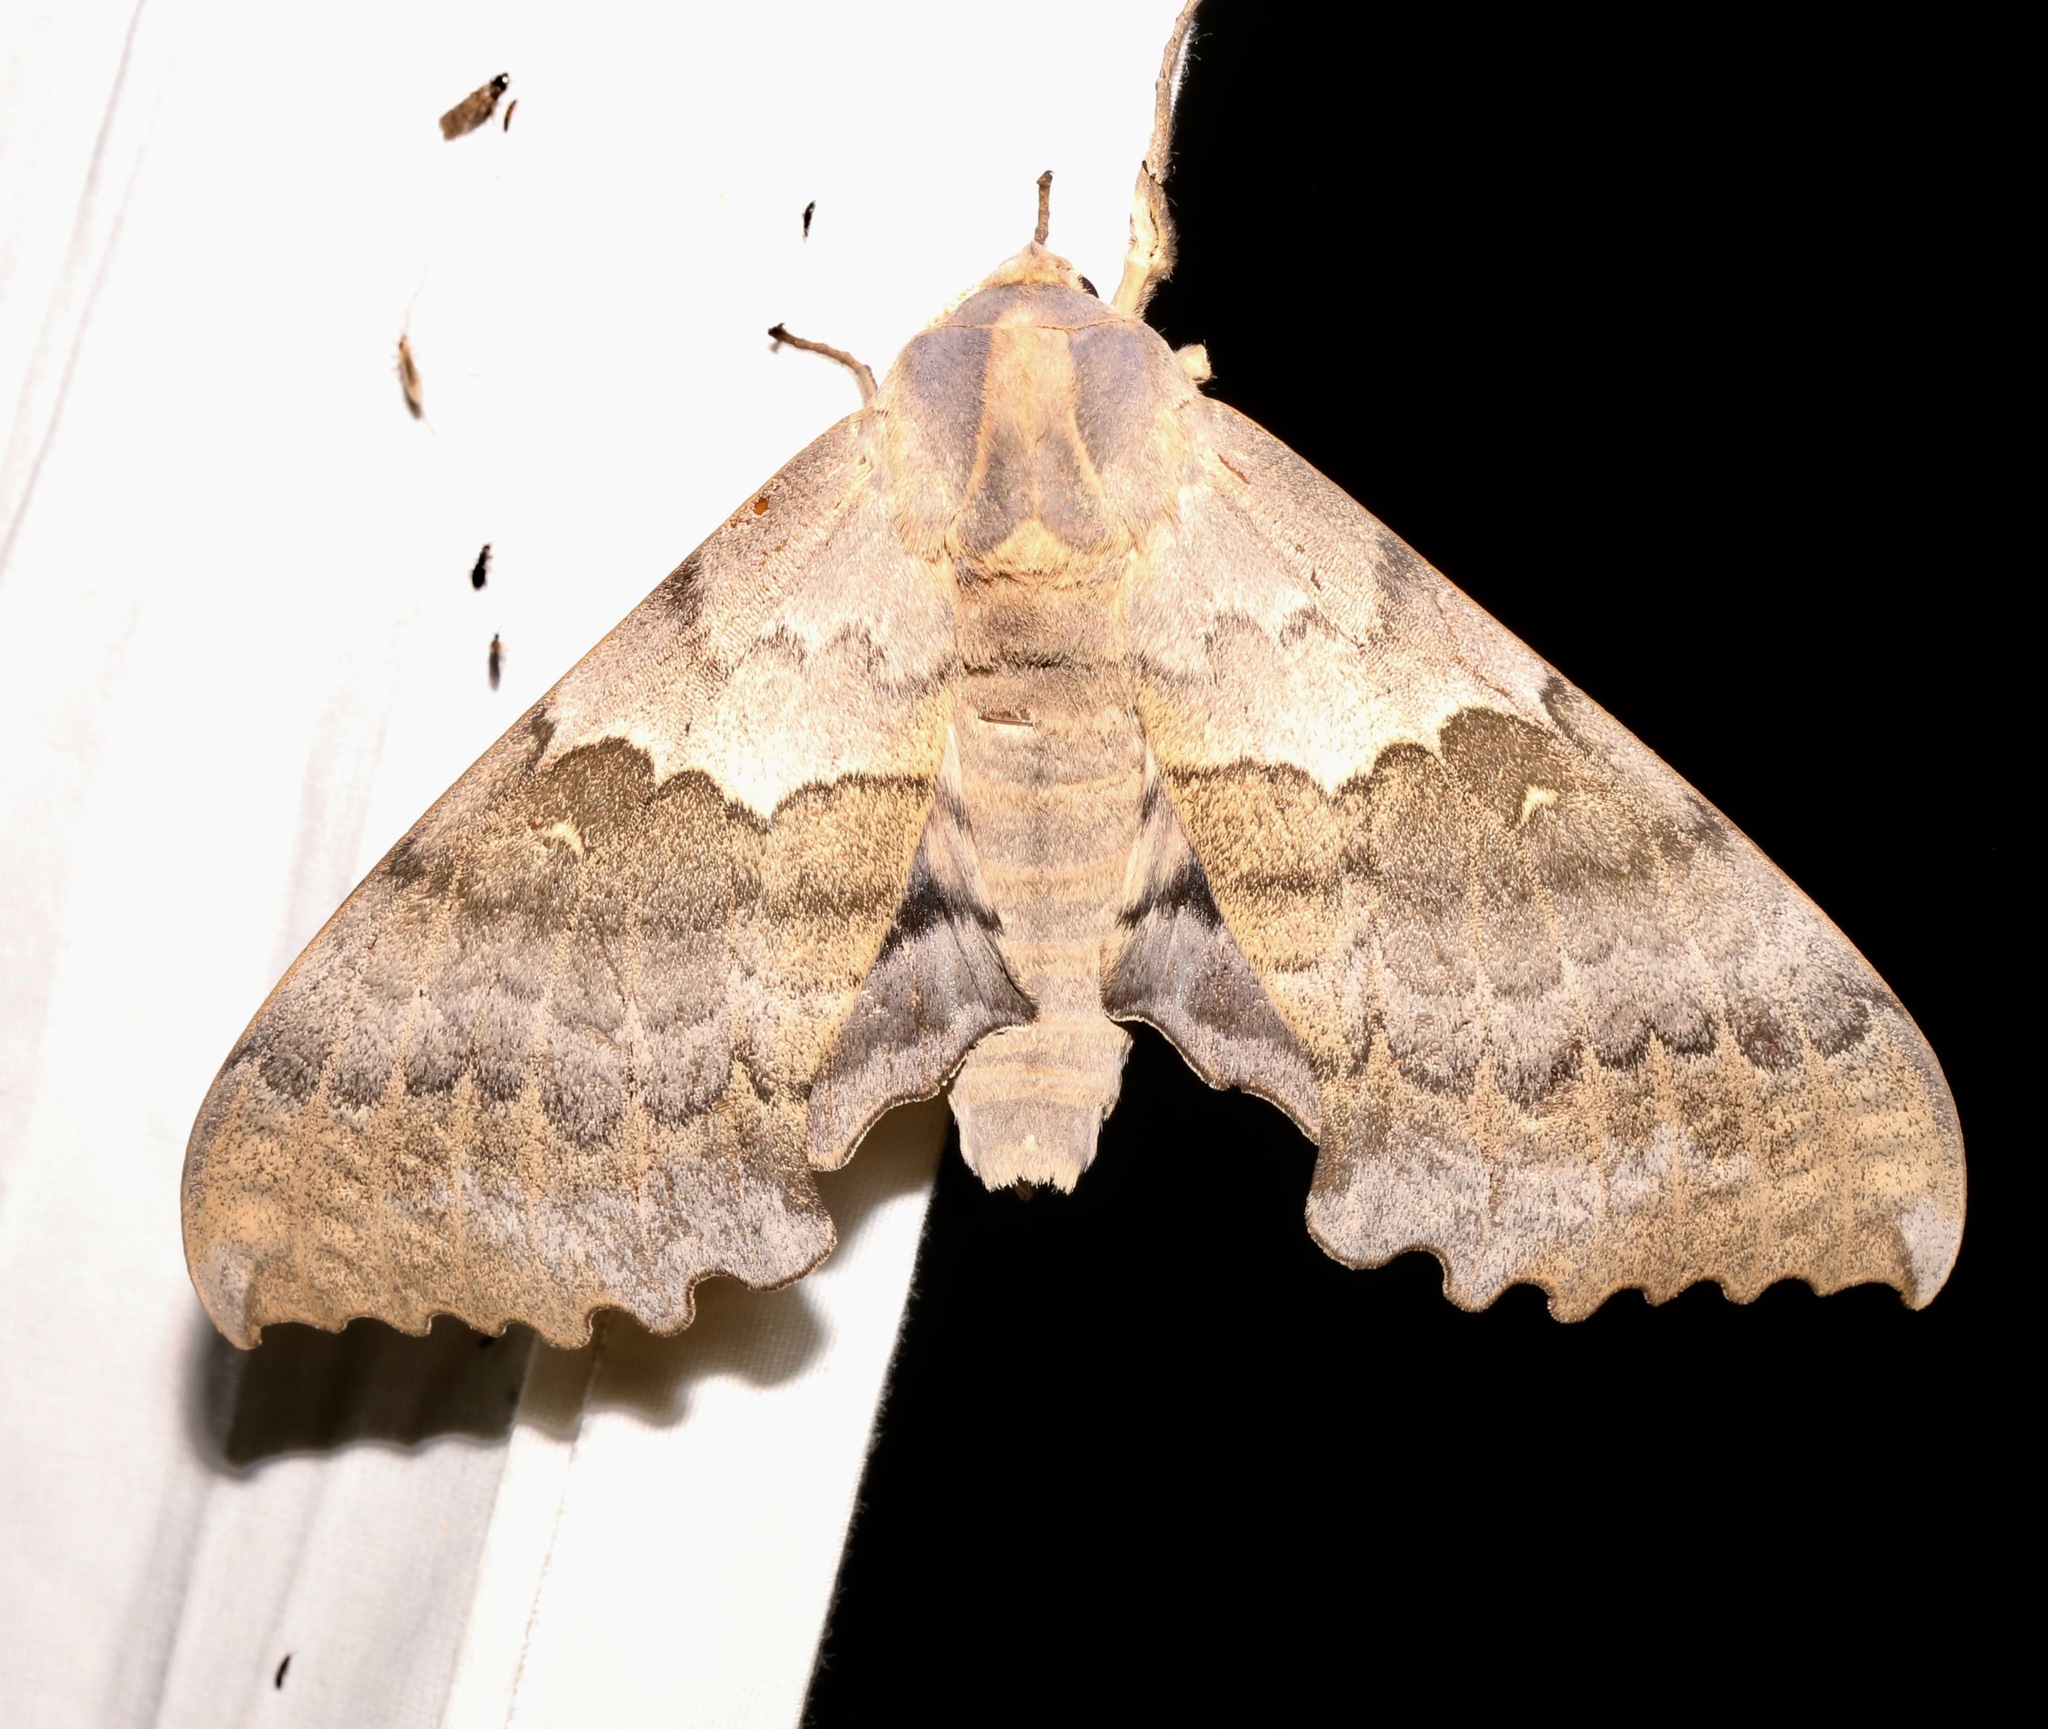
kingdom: Animalia
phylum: Arthropoda
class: Insecta
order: Lepidoptera
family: Sphingidae
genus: Pachysphinx
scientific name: Pachysphinx occidentalis
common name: Western poplar sphinx
